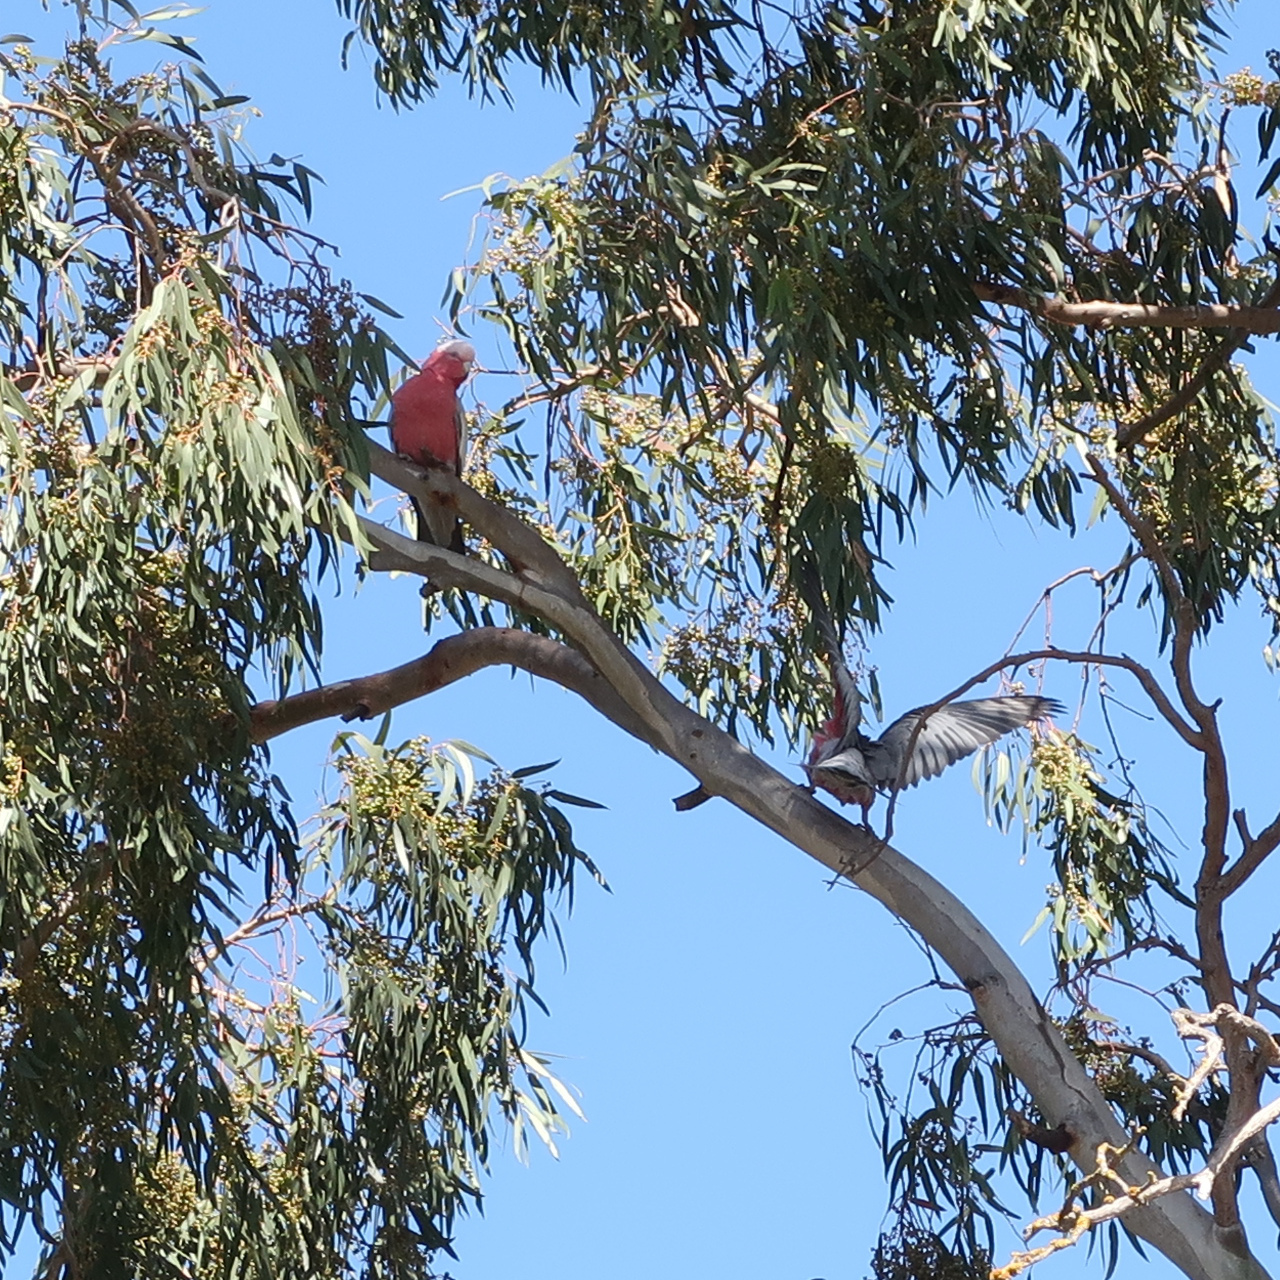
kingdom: Animalia
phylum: Chordata
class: Aves
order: Psittaciformes
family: Psittacidae
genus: Eolophus
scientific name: Eolophus roseicapilla
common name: Galah
